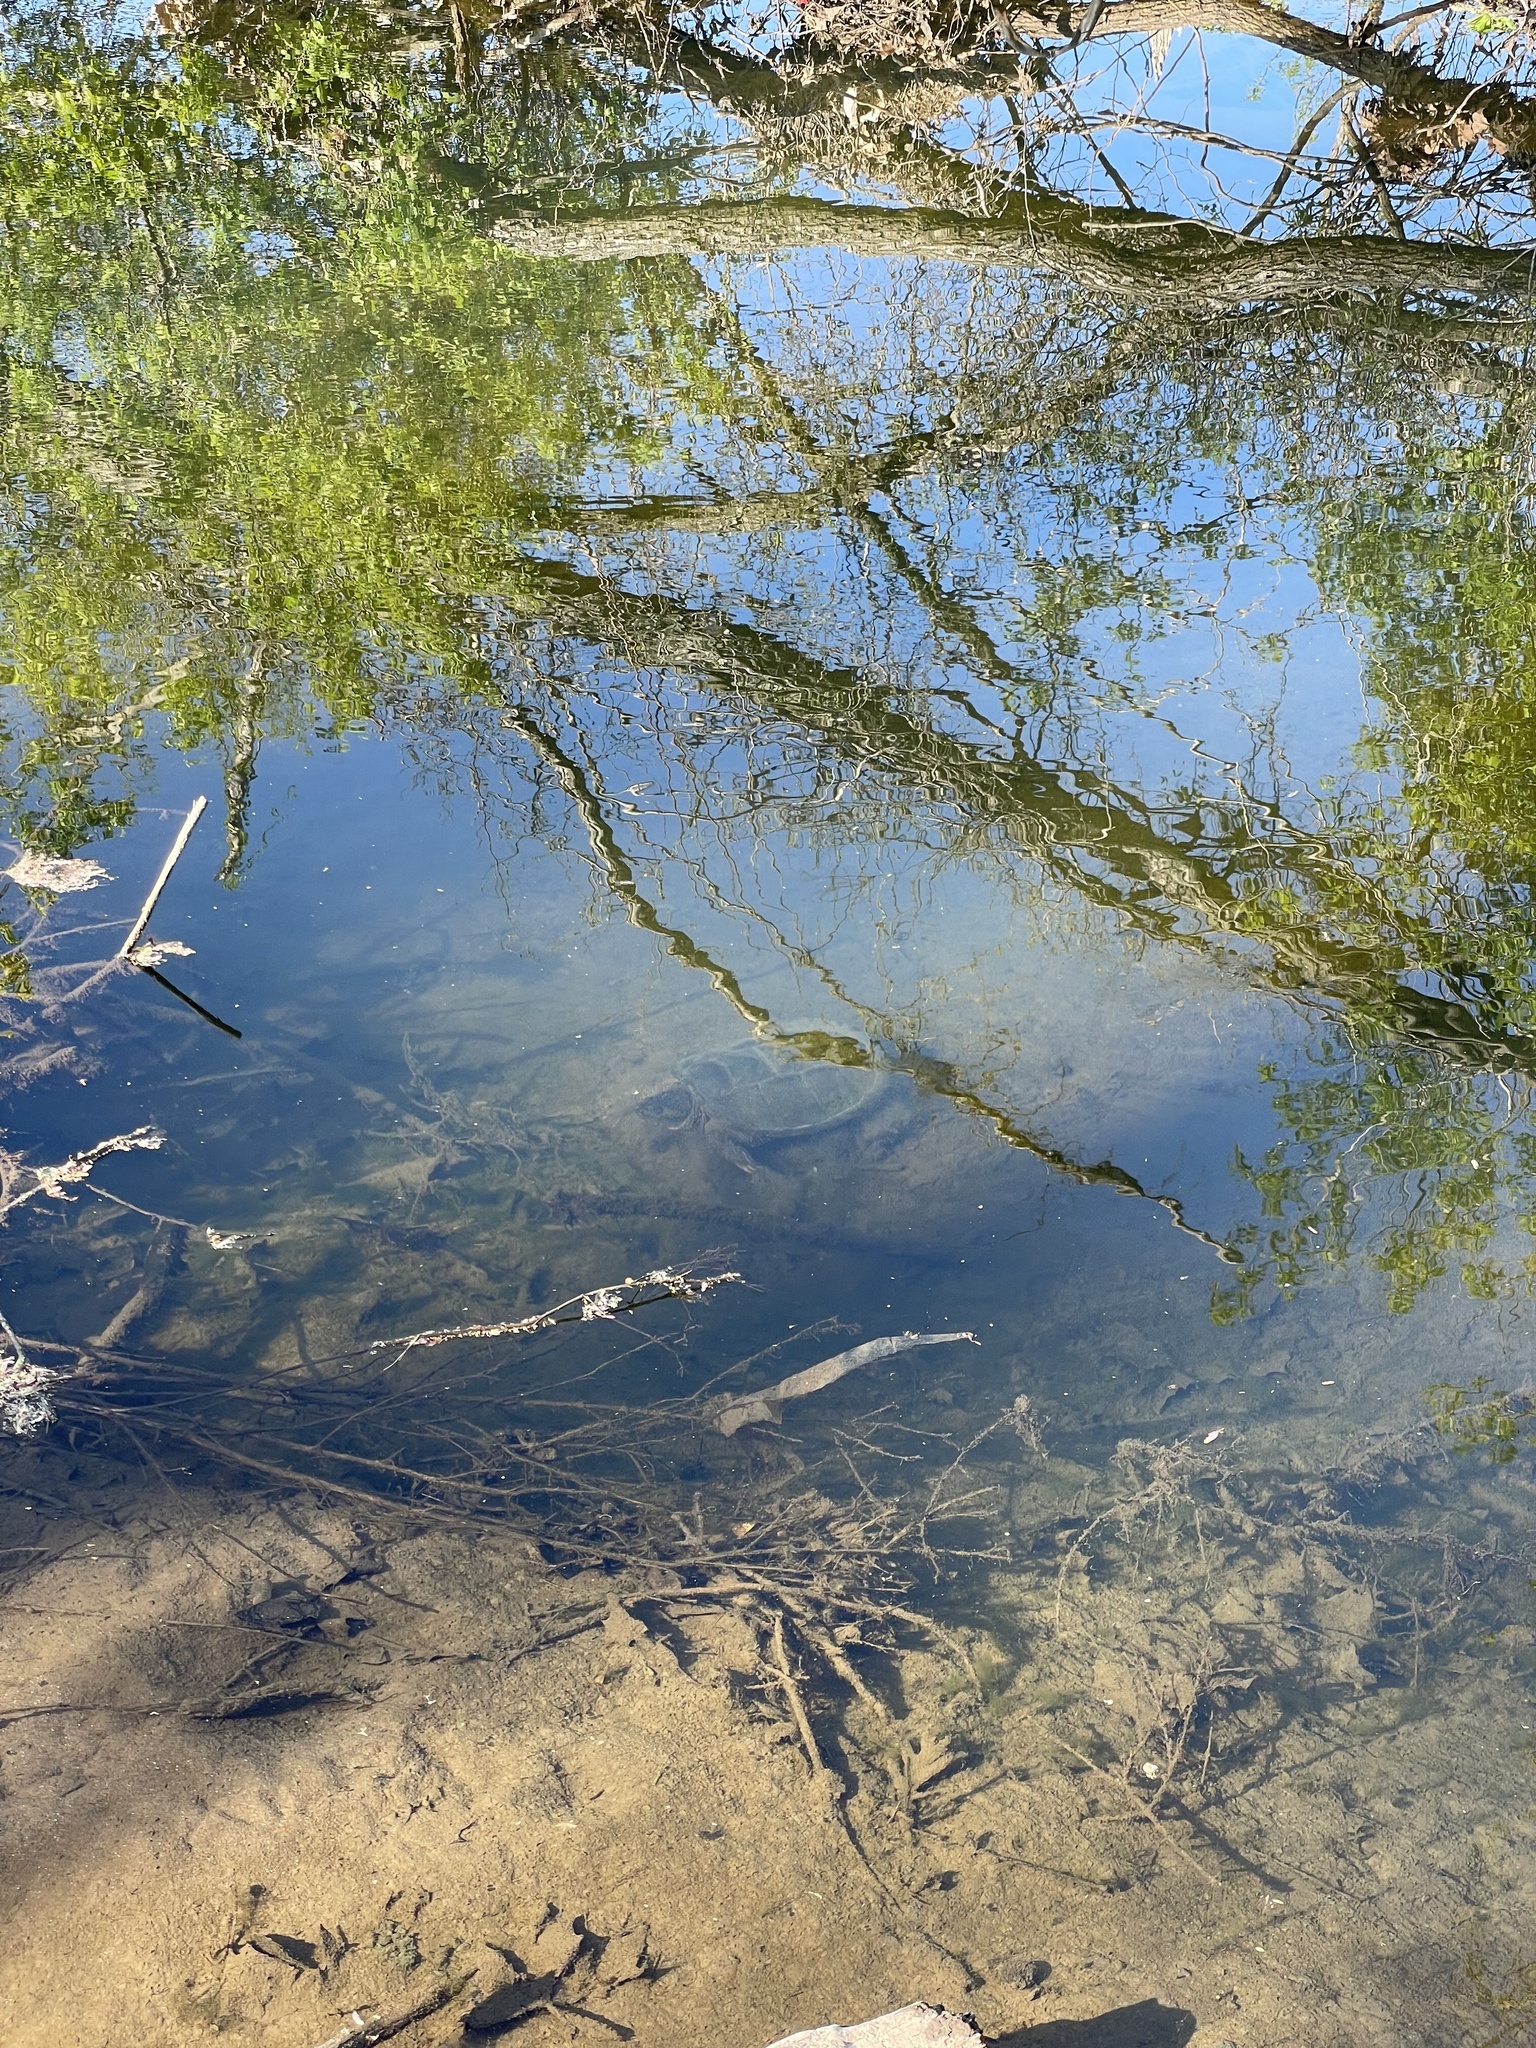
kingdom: Animalia
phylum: Chordata
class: Testudines
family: Chelydridae
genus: Chelydra
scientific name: Chelydra serpentina
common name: Common snapping turtle
